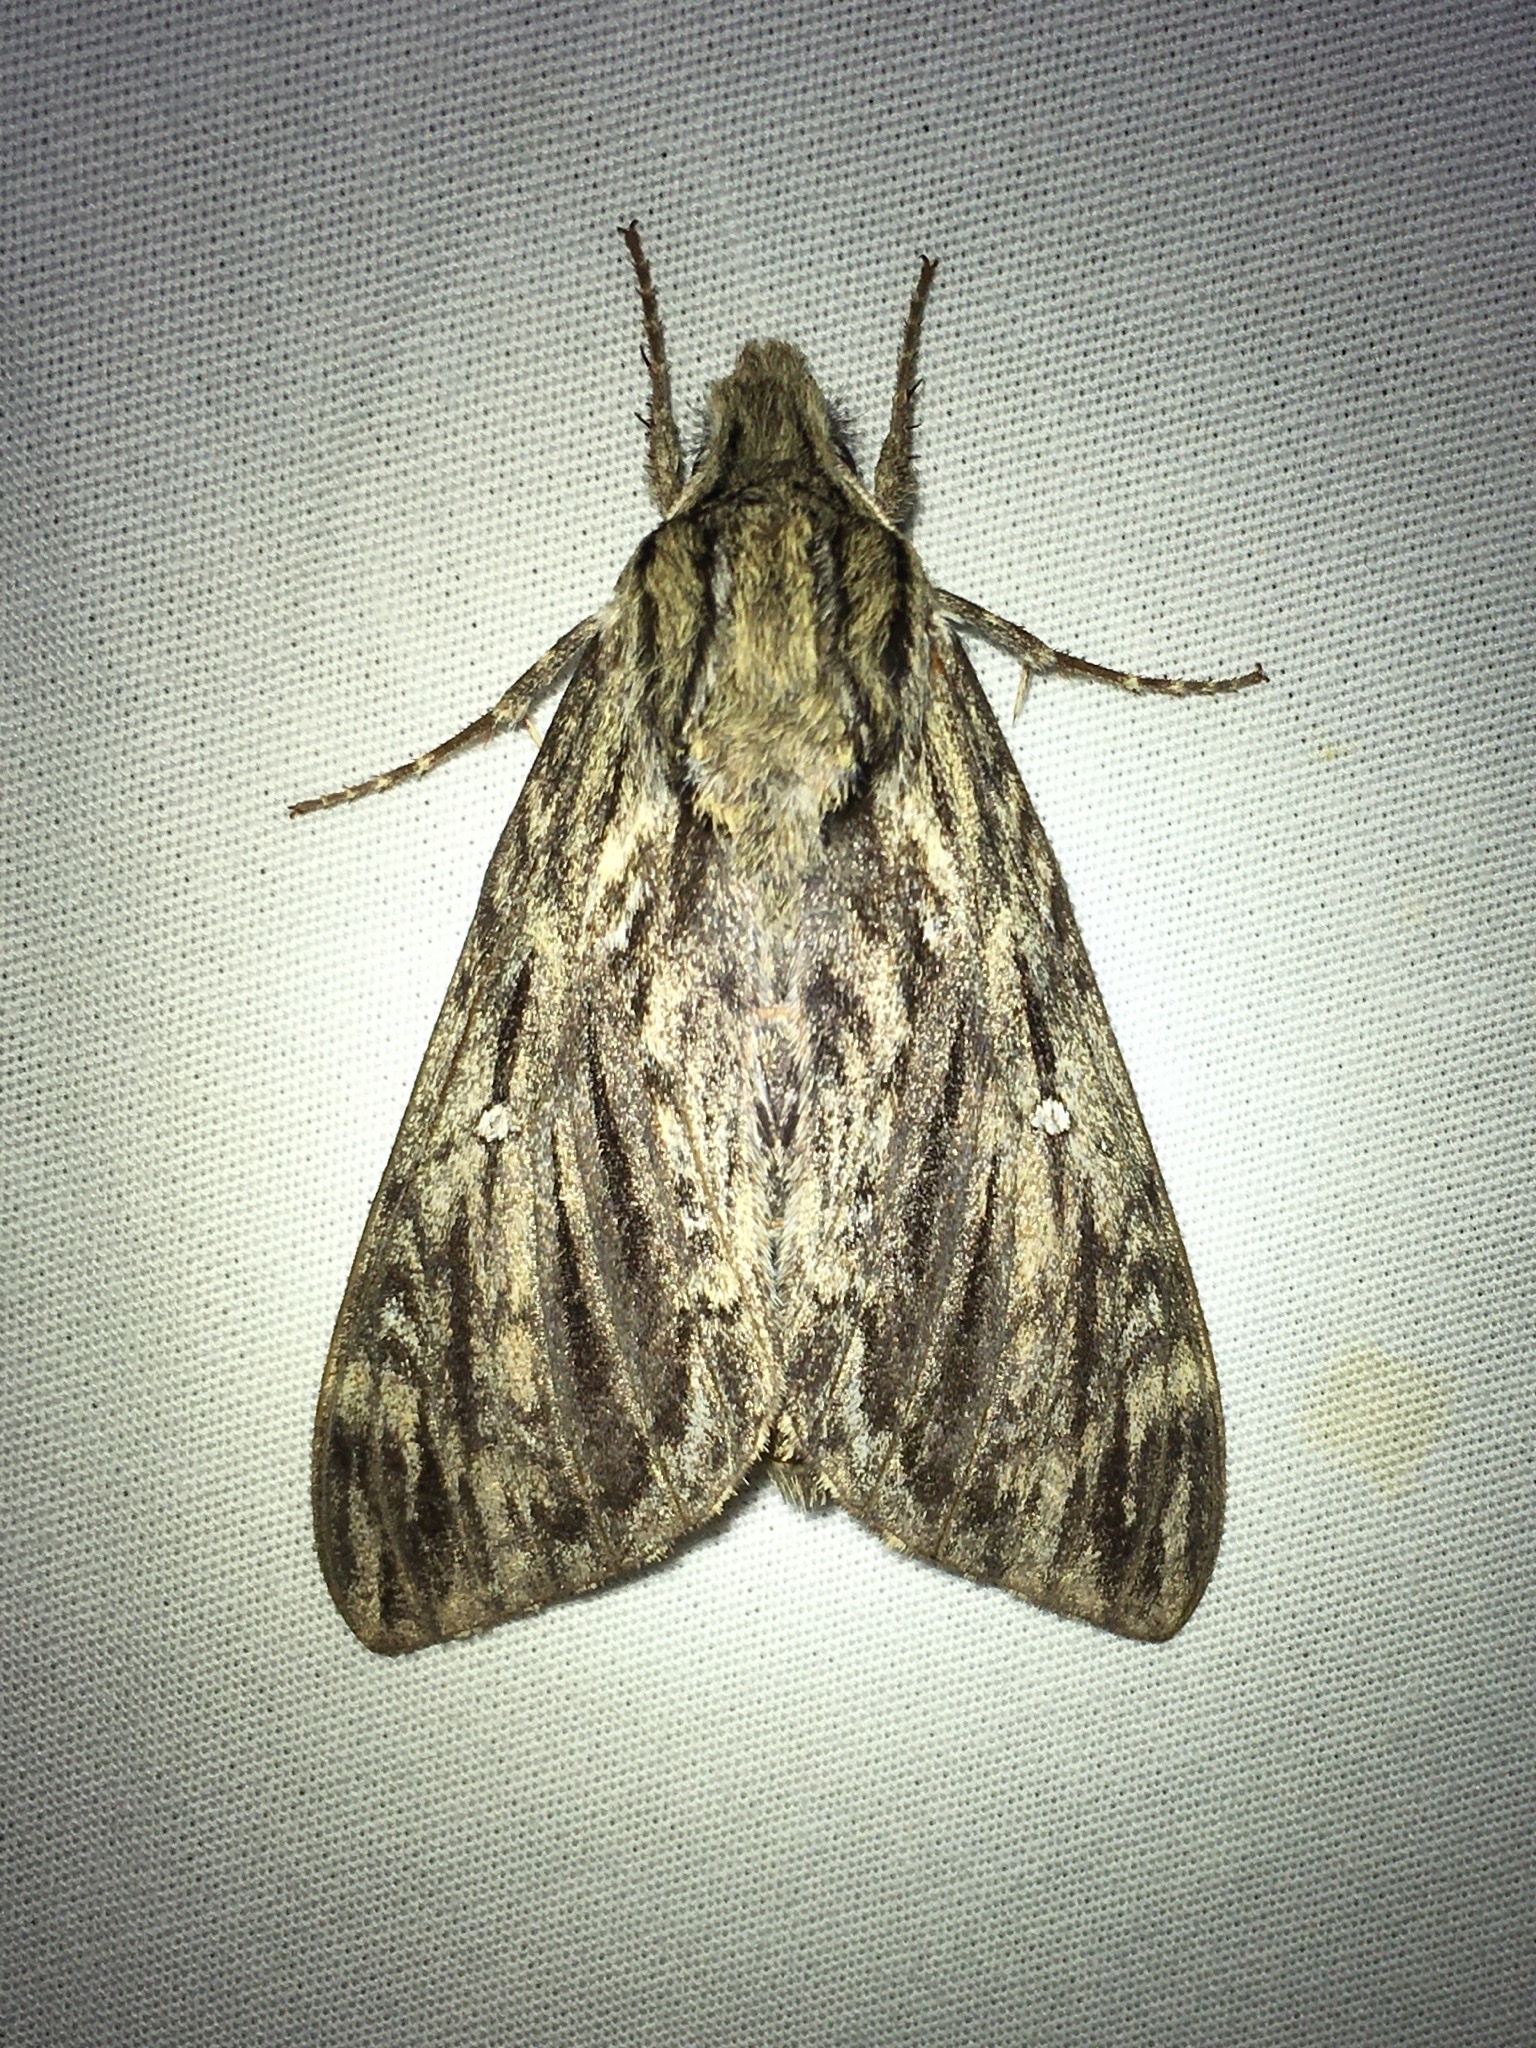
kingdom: Animalia
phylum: Arthropoda
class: Insecta
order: Lepidoptera
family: Sphingidae
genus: Lintneria
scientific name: Lintneria eremitus
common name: Hermit sphinx
